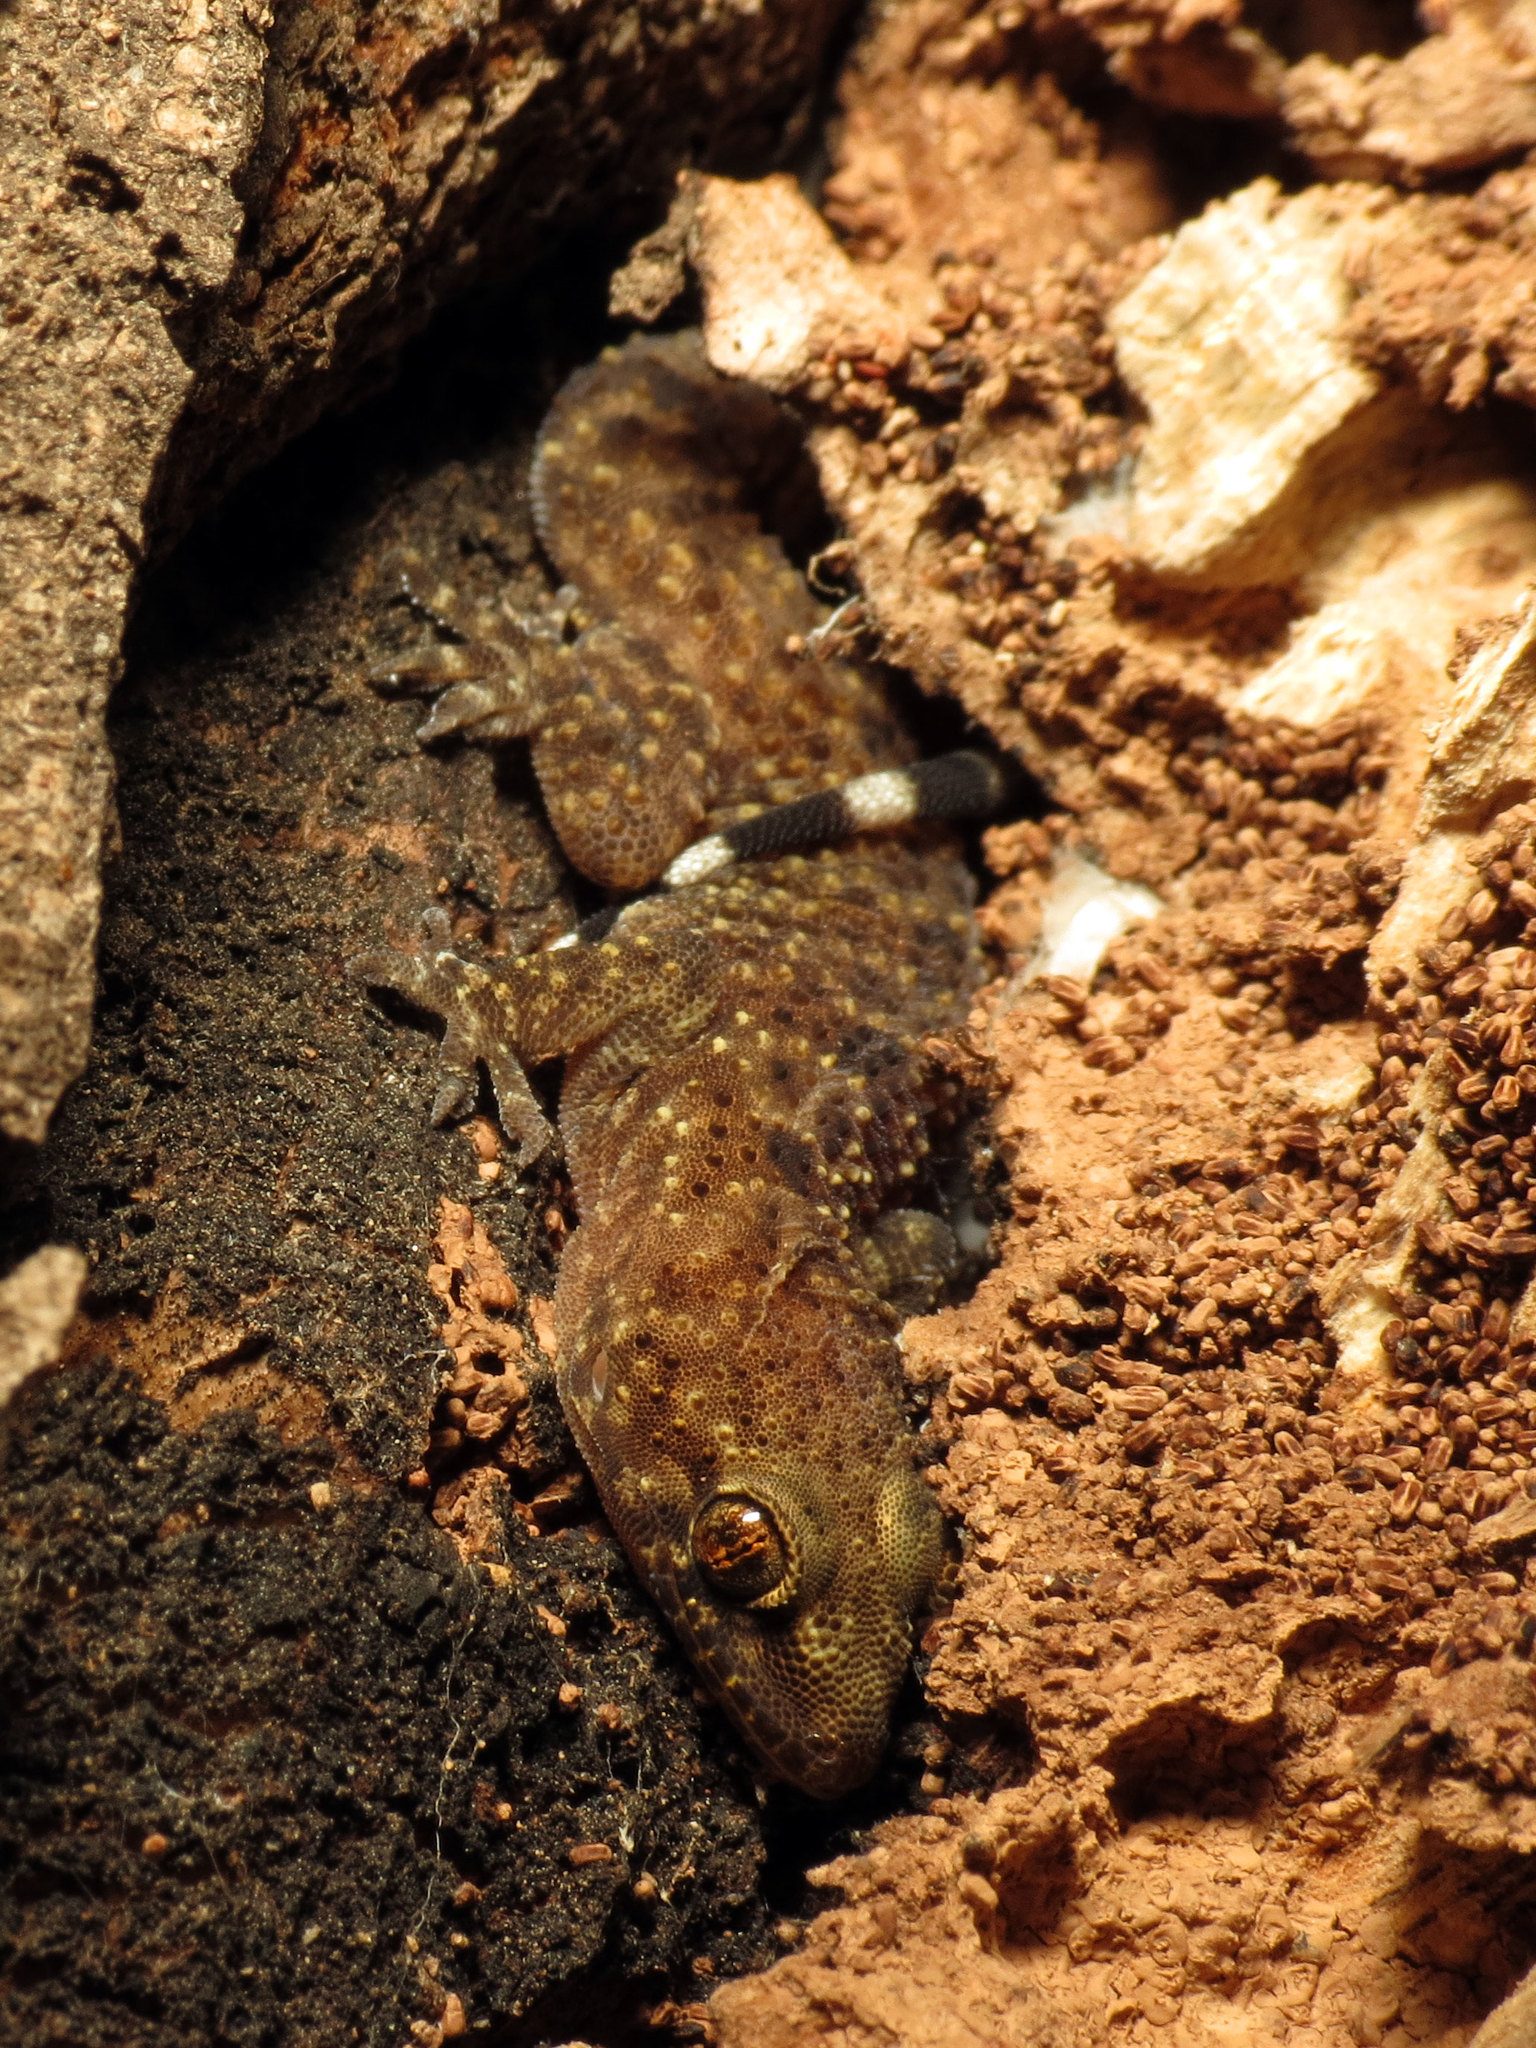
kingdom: Animalia
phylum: Chordata
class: Squamata
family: Gekkonidae
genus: Hemidactylus
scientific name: Hemidactylus turcicus
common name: Turkish gecko
